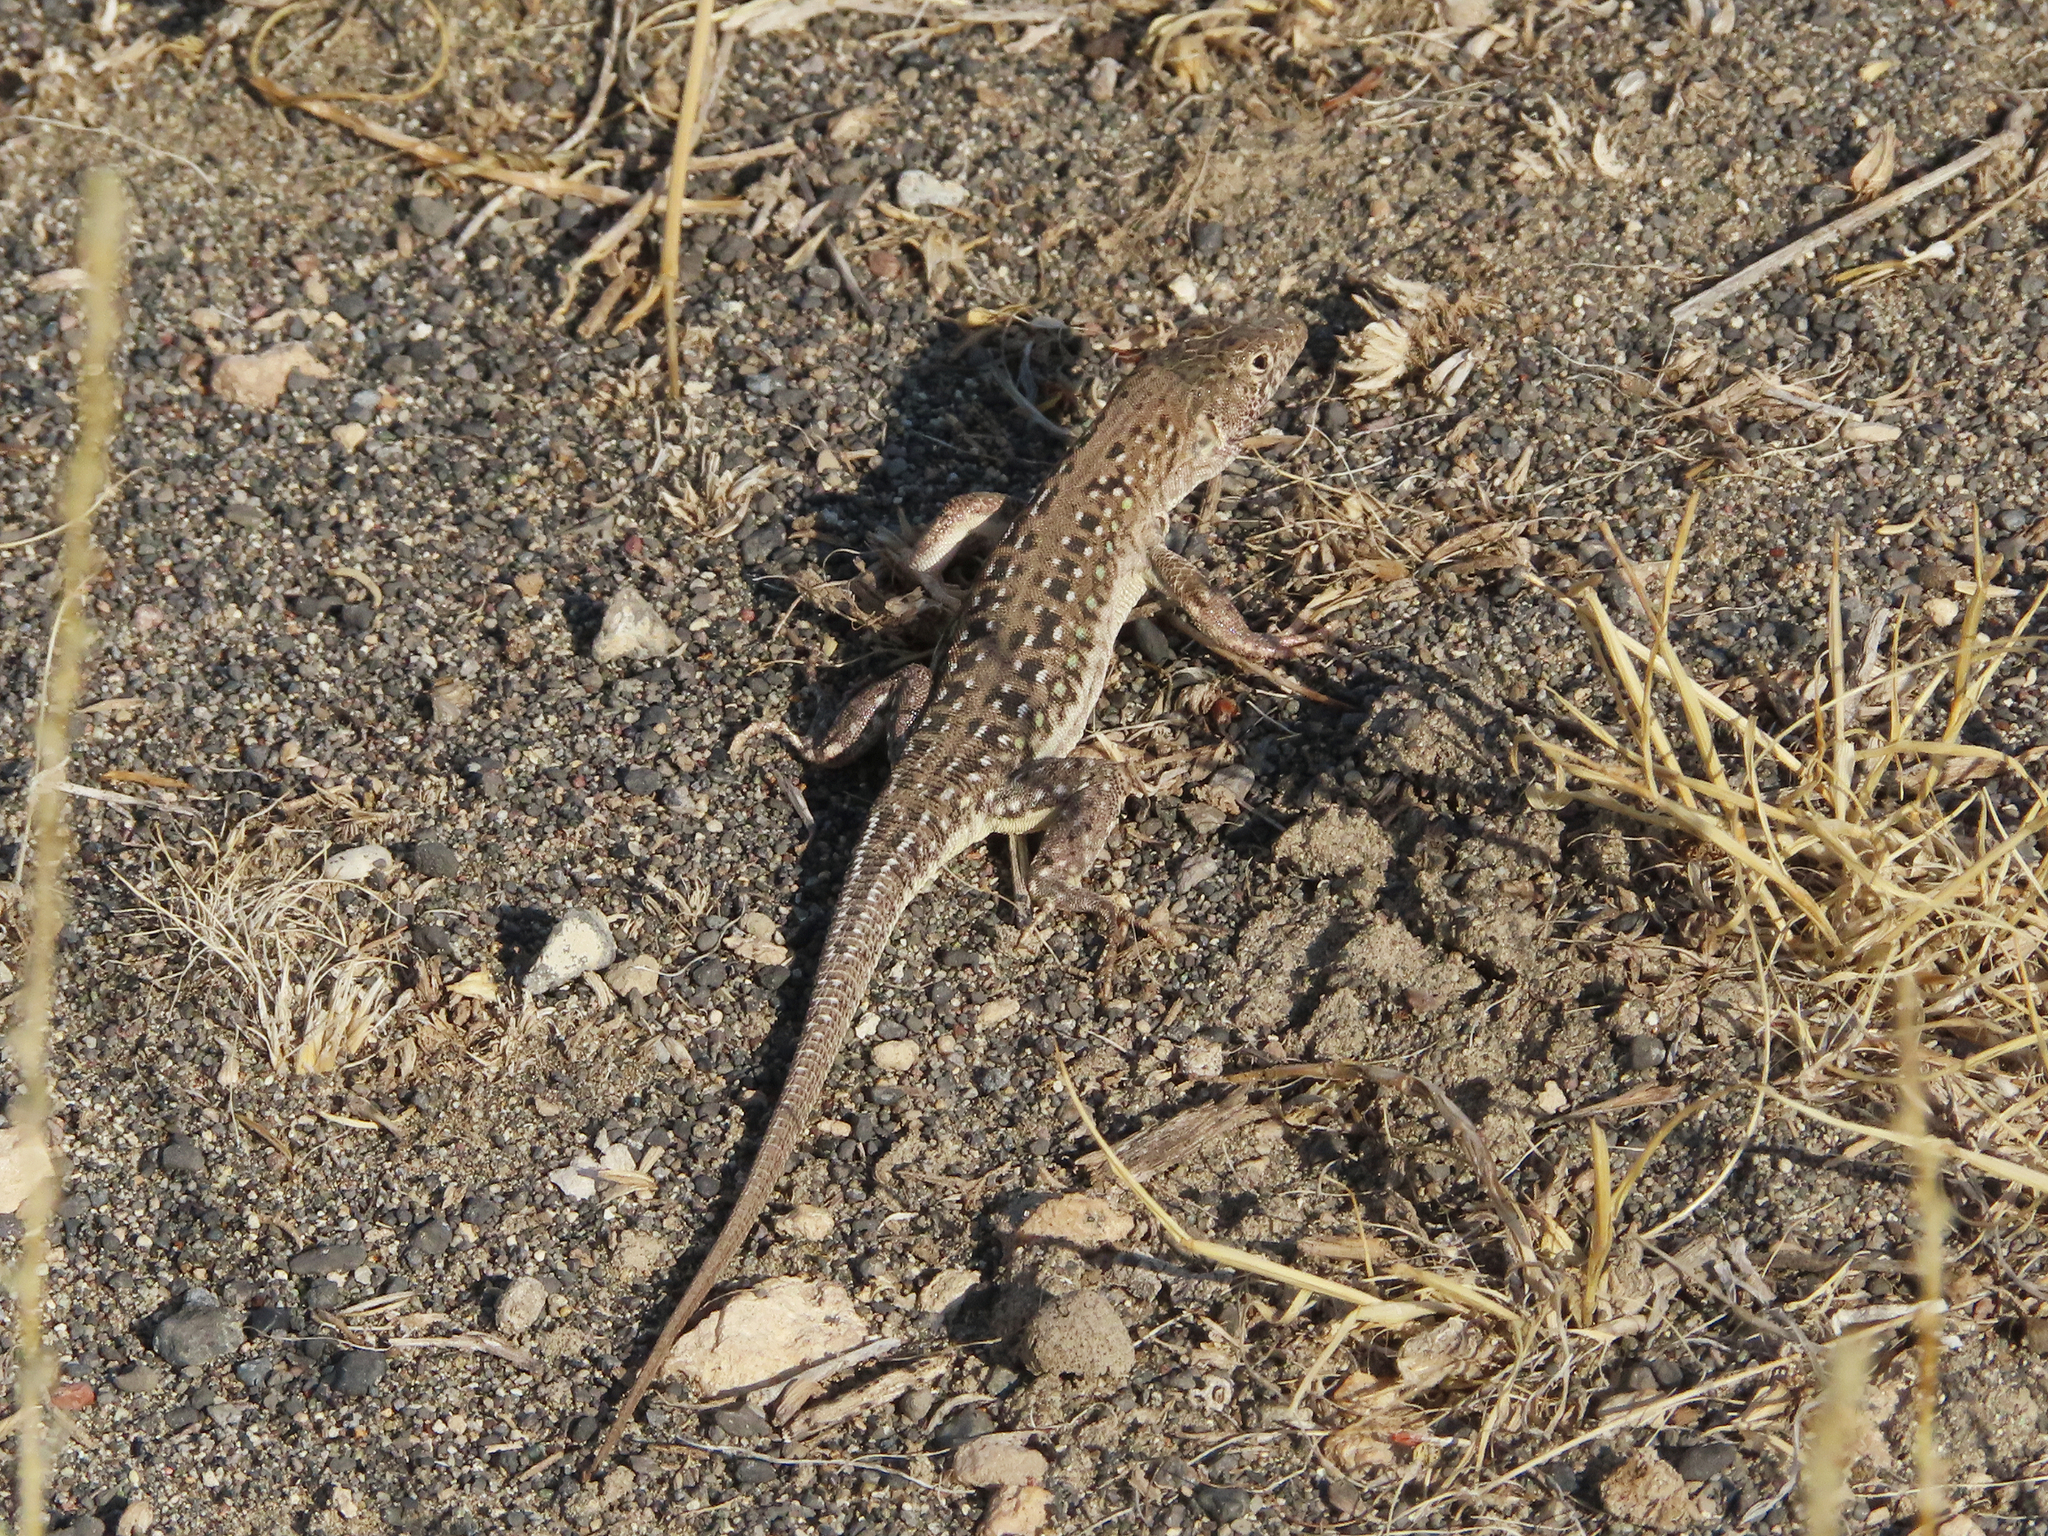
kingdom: Animalia
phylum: Chordata
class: Squamata
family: Lacertidae
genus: Eremias
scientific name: Eremias strauchi
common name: Strauch's racerunner
